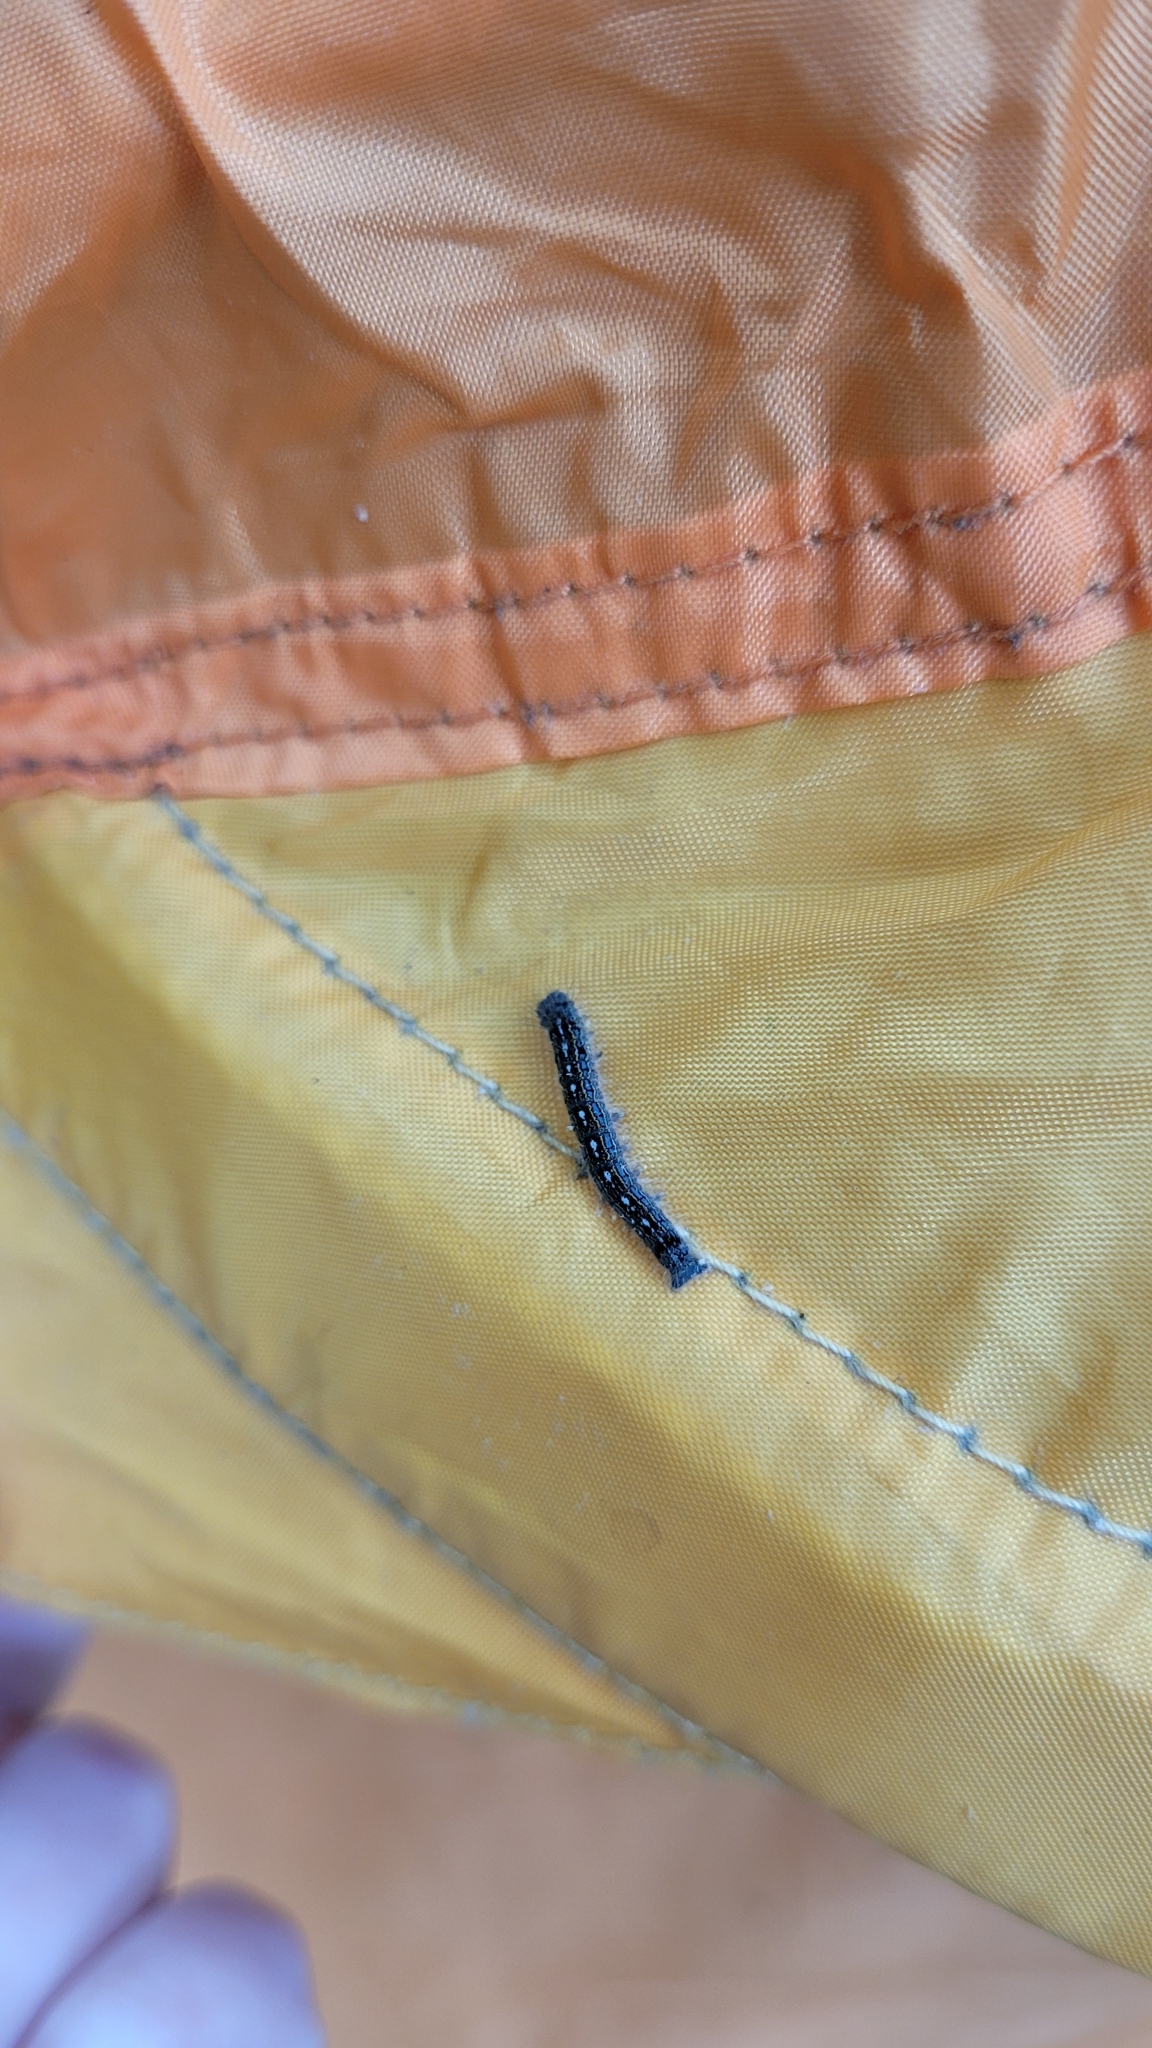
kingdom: Animalia
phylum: Arthropoda
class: Insecta
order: Lepidoptera
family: Lasiocampidae
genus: Malacosoma
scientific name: Malacosoma disstria
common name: Forest tent caterpillar
